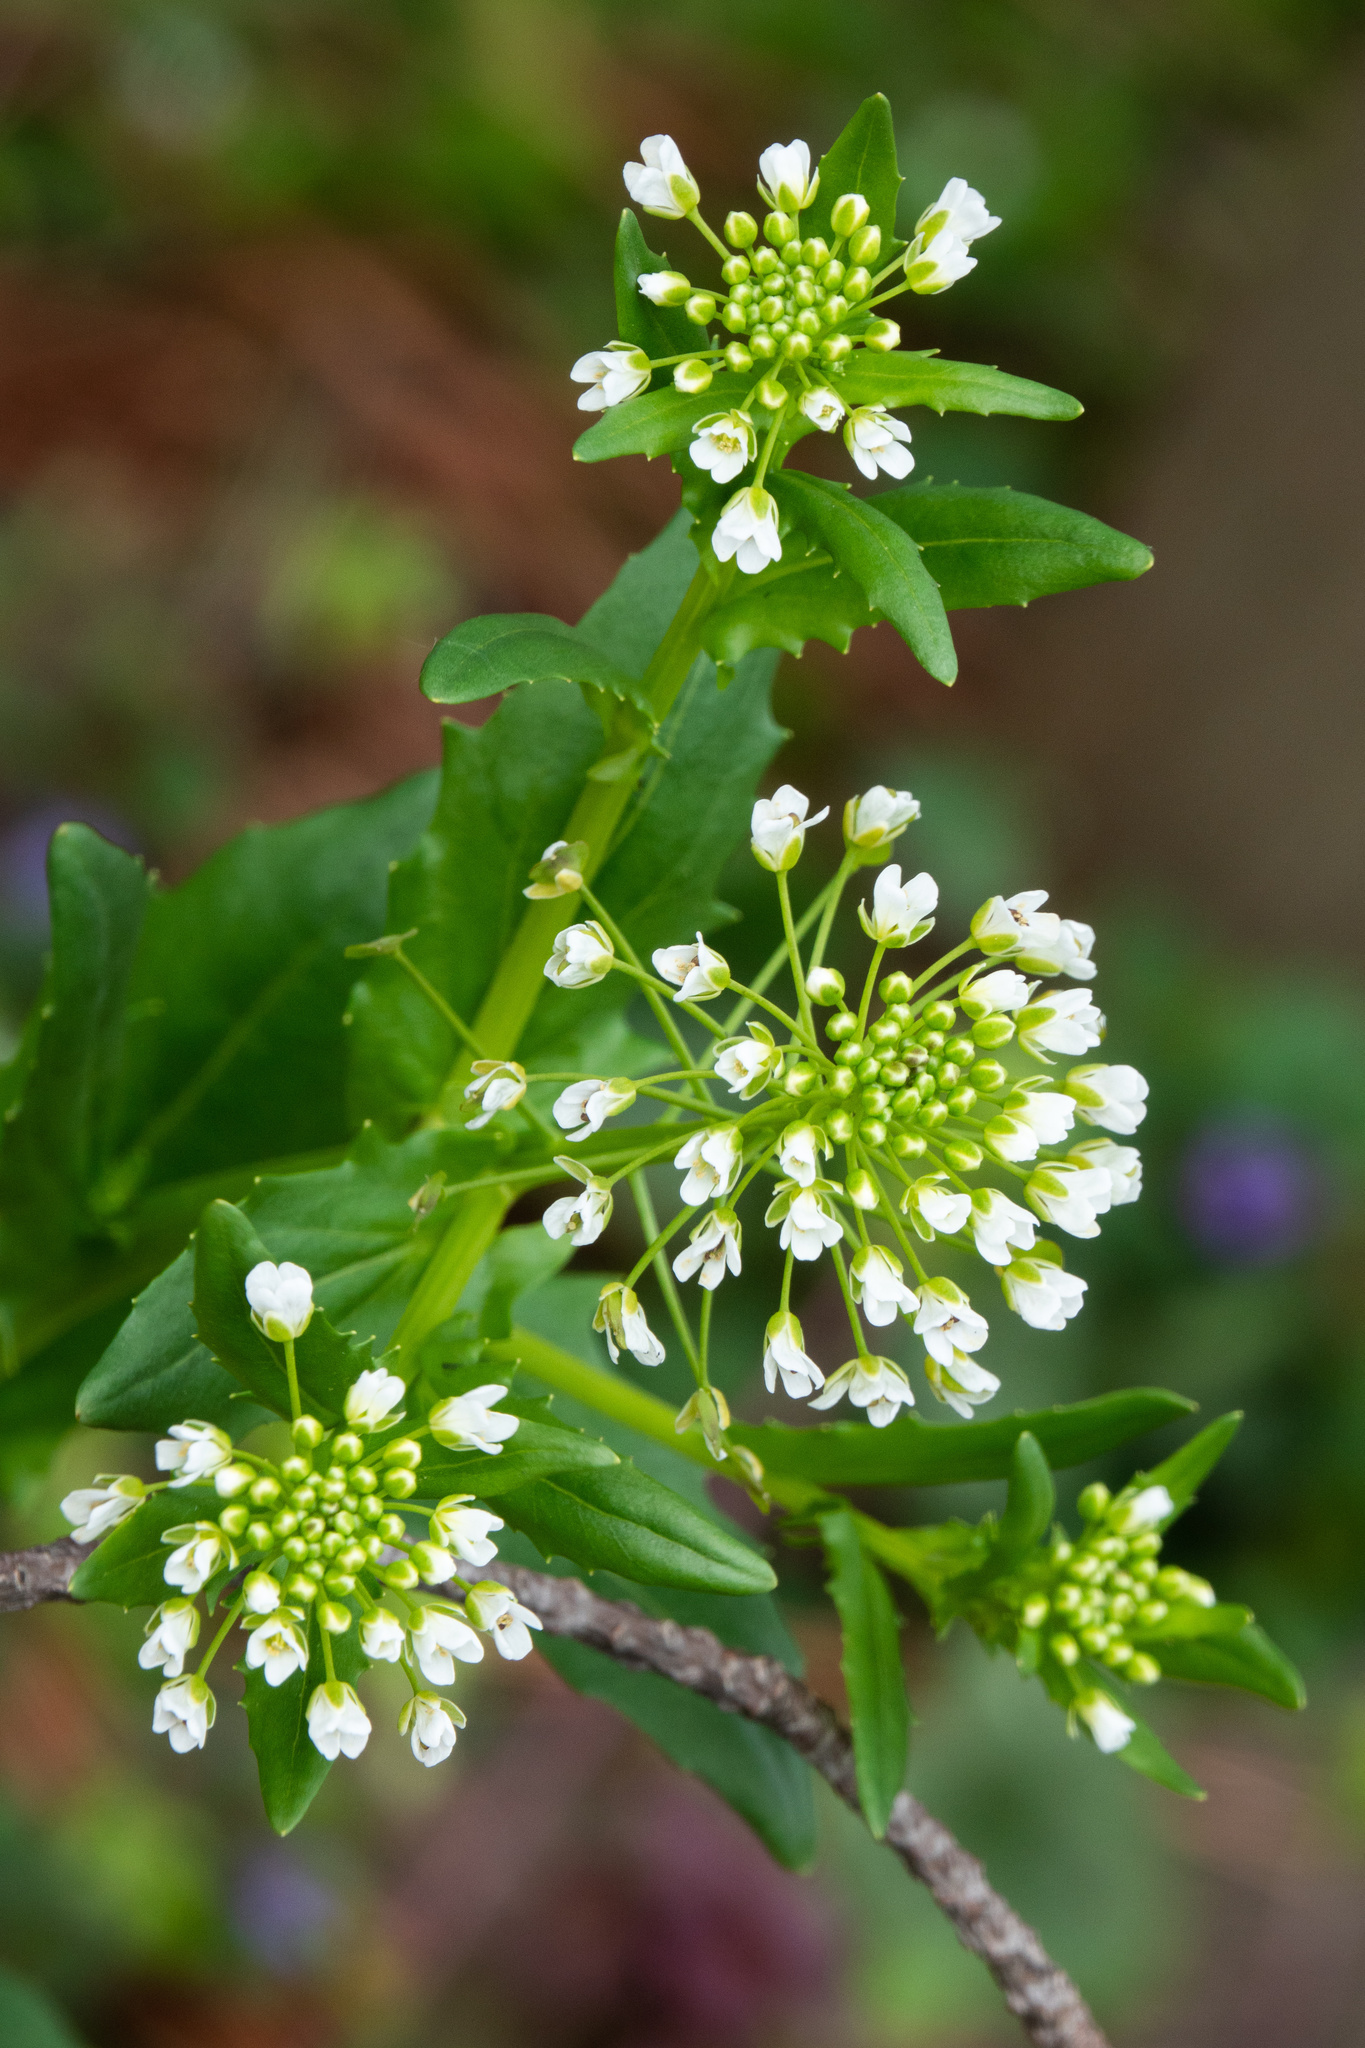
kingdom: Plantae
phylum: Tracheophyta
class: Magnoliopsida
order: Brassicales
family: Brassicaceae
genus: Thlaspi
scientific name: Thlaspi arvense
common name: Field pennycress
